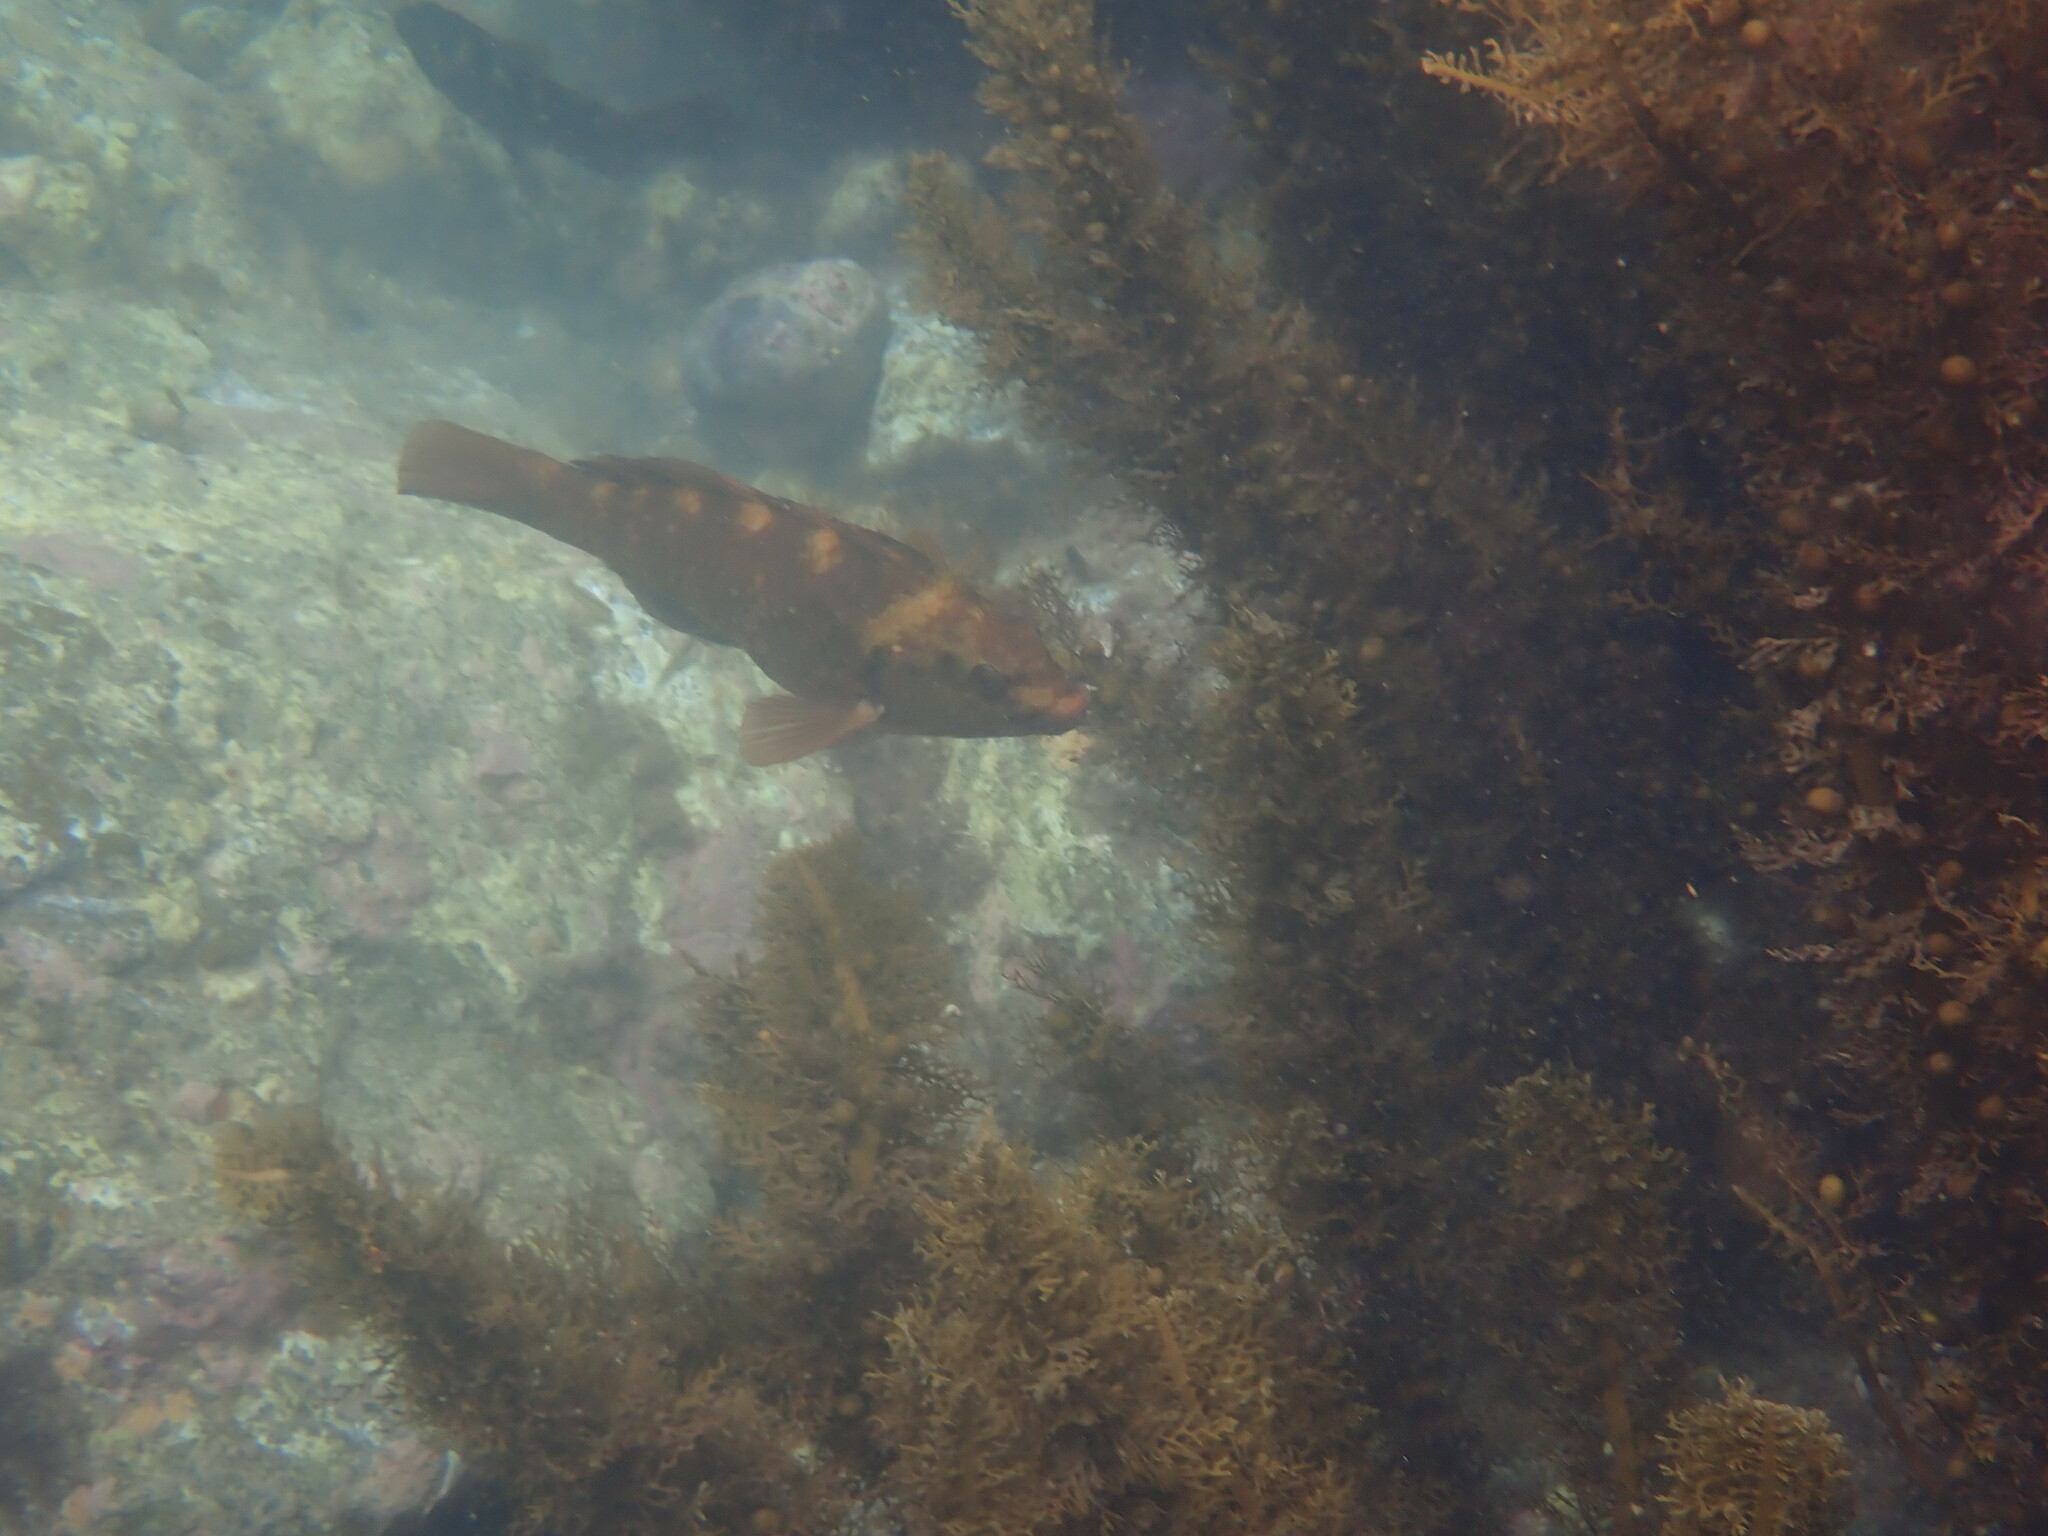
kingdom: Animalia
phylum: Chordata
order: Perciformes
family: Labridae
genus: Notolabrus
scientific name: Notolabrus fucicola
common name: Banded parrotfish
